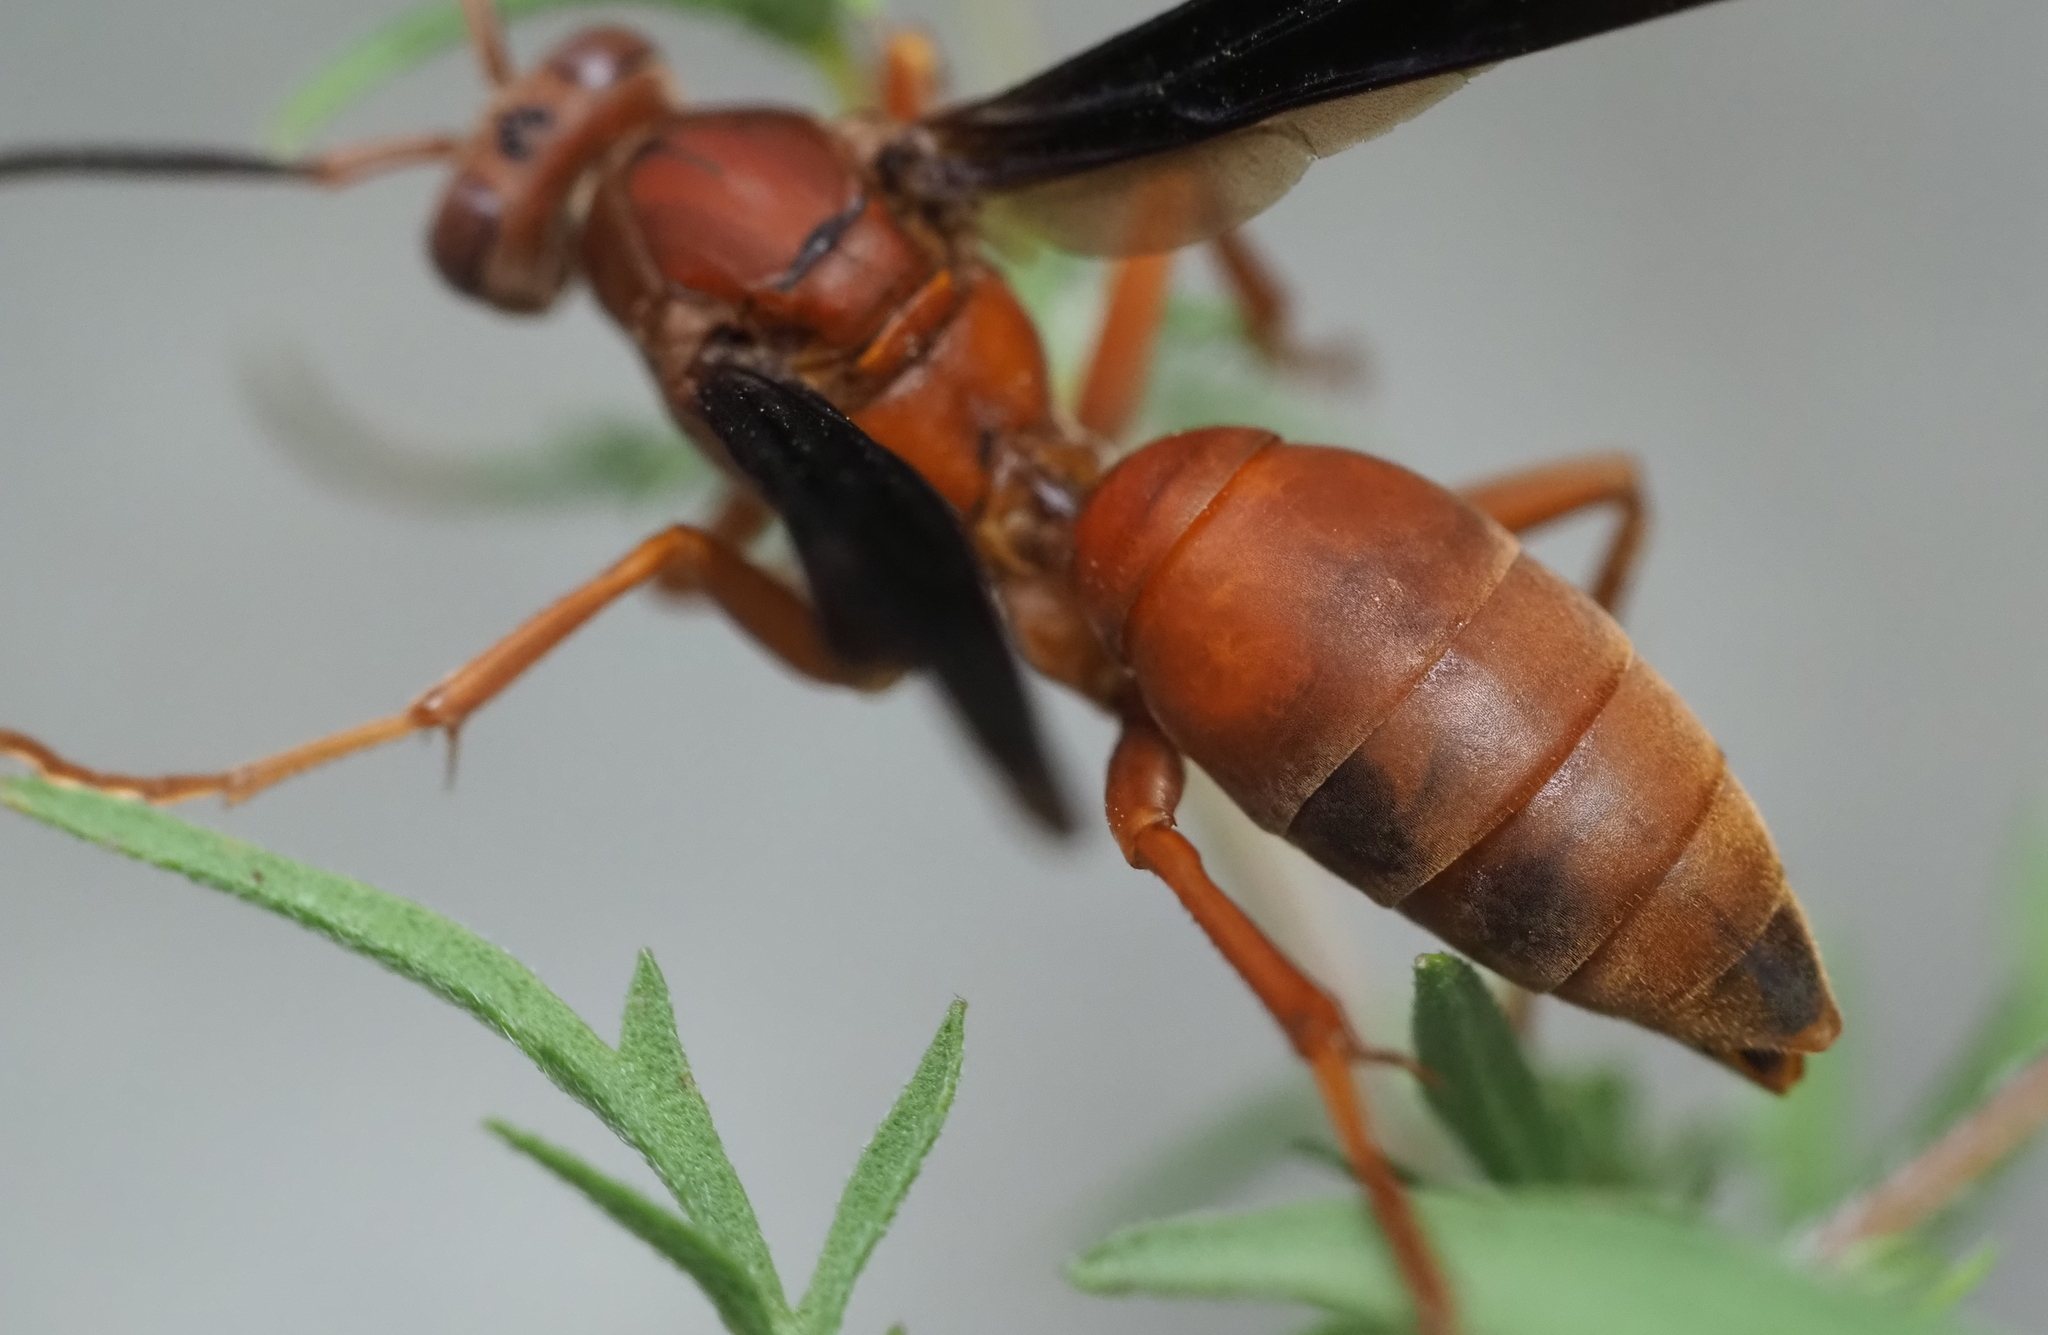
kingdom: Animalia
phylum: Arthropoda
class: Insecta
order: Hymenoptera
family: Eumenidae
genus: Polistes
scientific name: Polistes carolina
